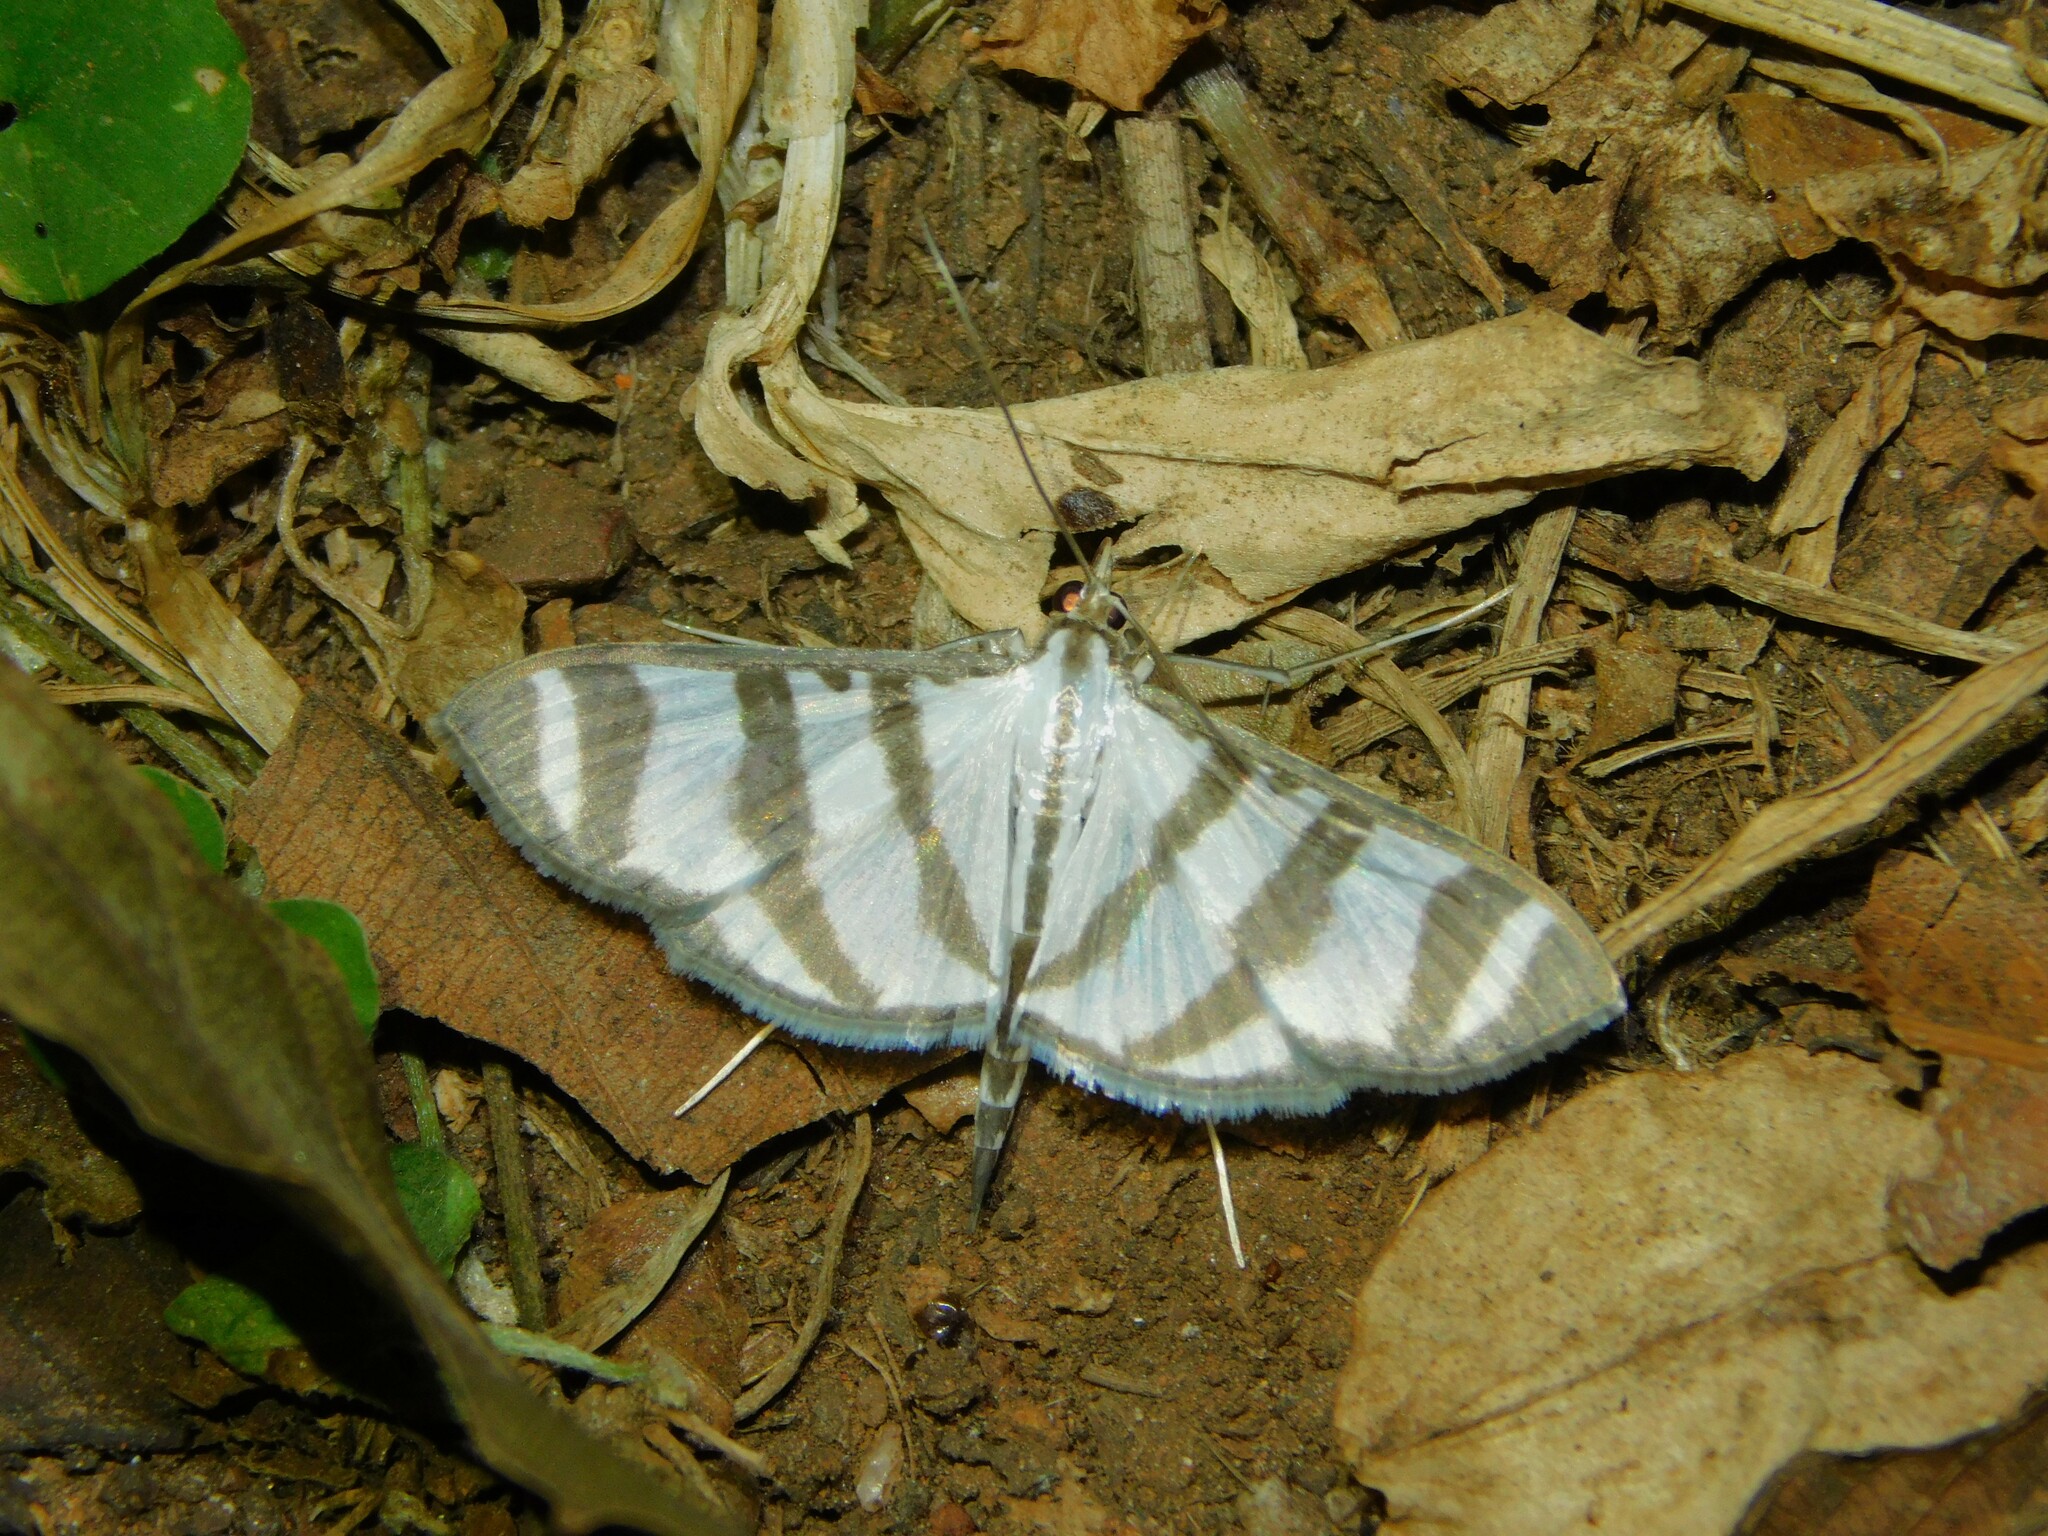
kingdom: Animalia
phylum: Arthropoda
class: Insecta
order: Lepidoptera
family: Crambidae
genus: Zebronia
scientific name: Zebronia phenice
